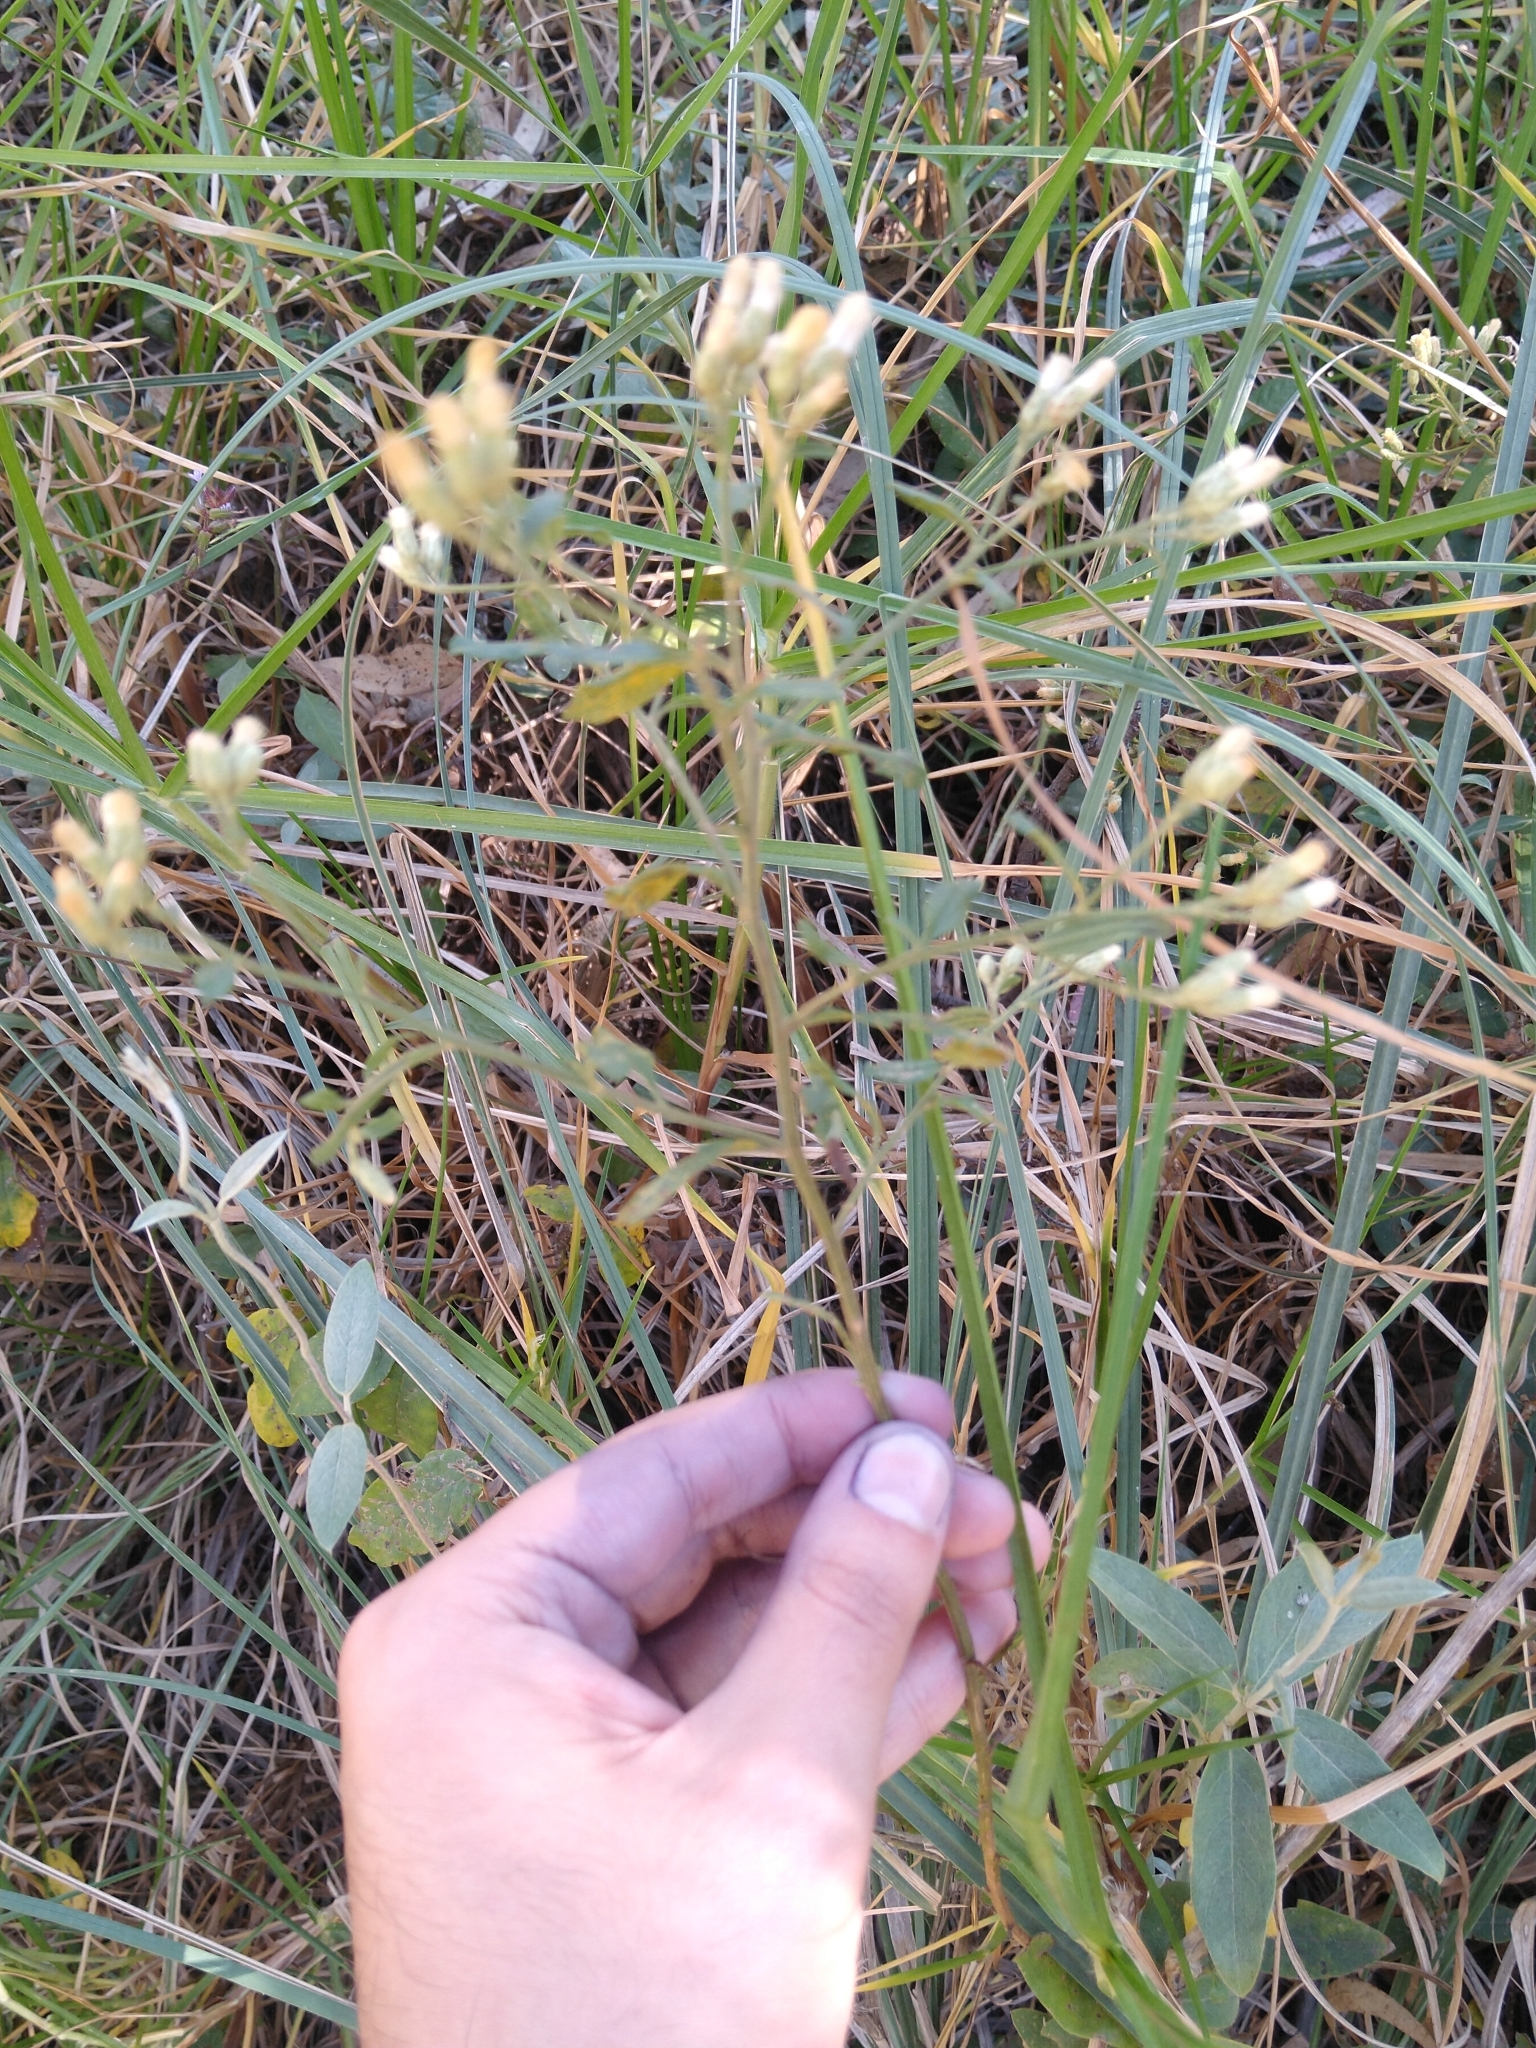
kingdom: Plantae
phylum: Tracheophyta
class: Magnoliopsida
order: Asterales
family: Asteraceae
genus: Baccharis
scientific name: Baccharis sordescens
